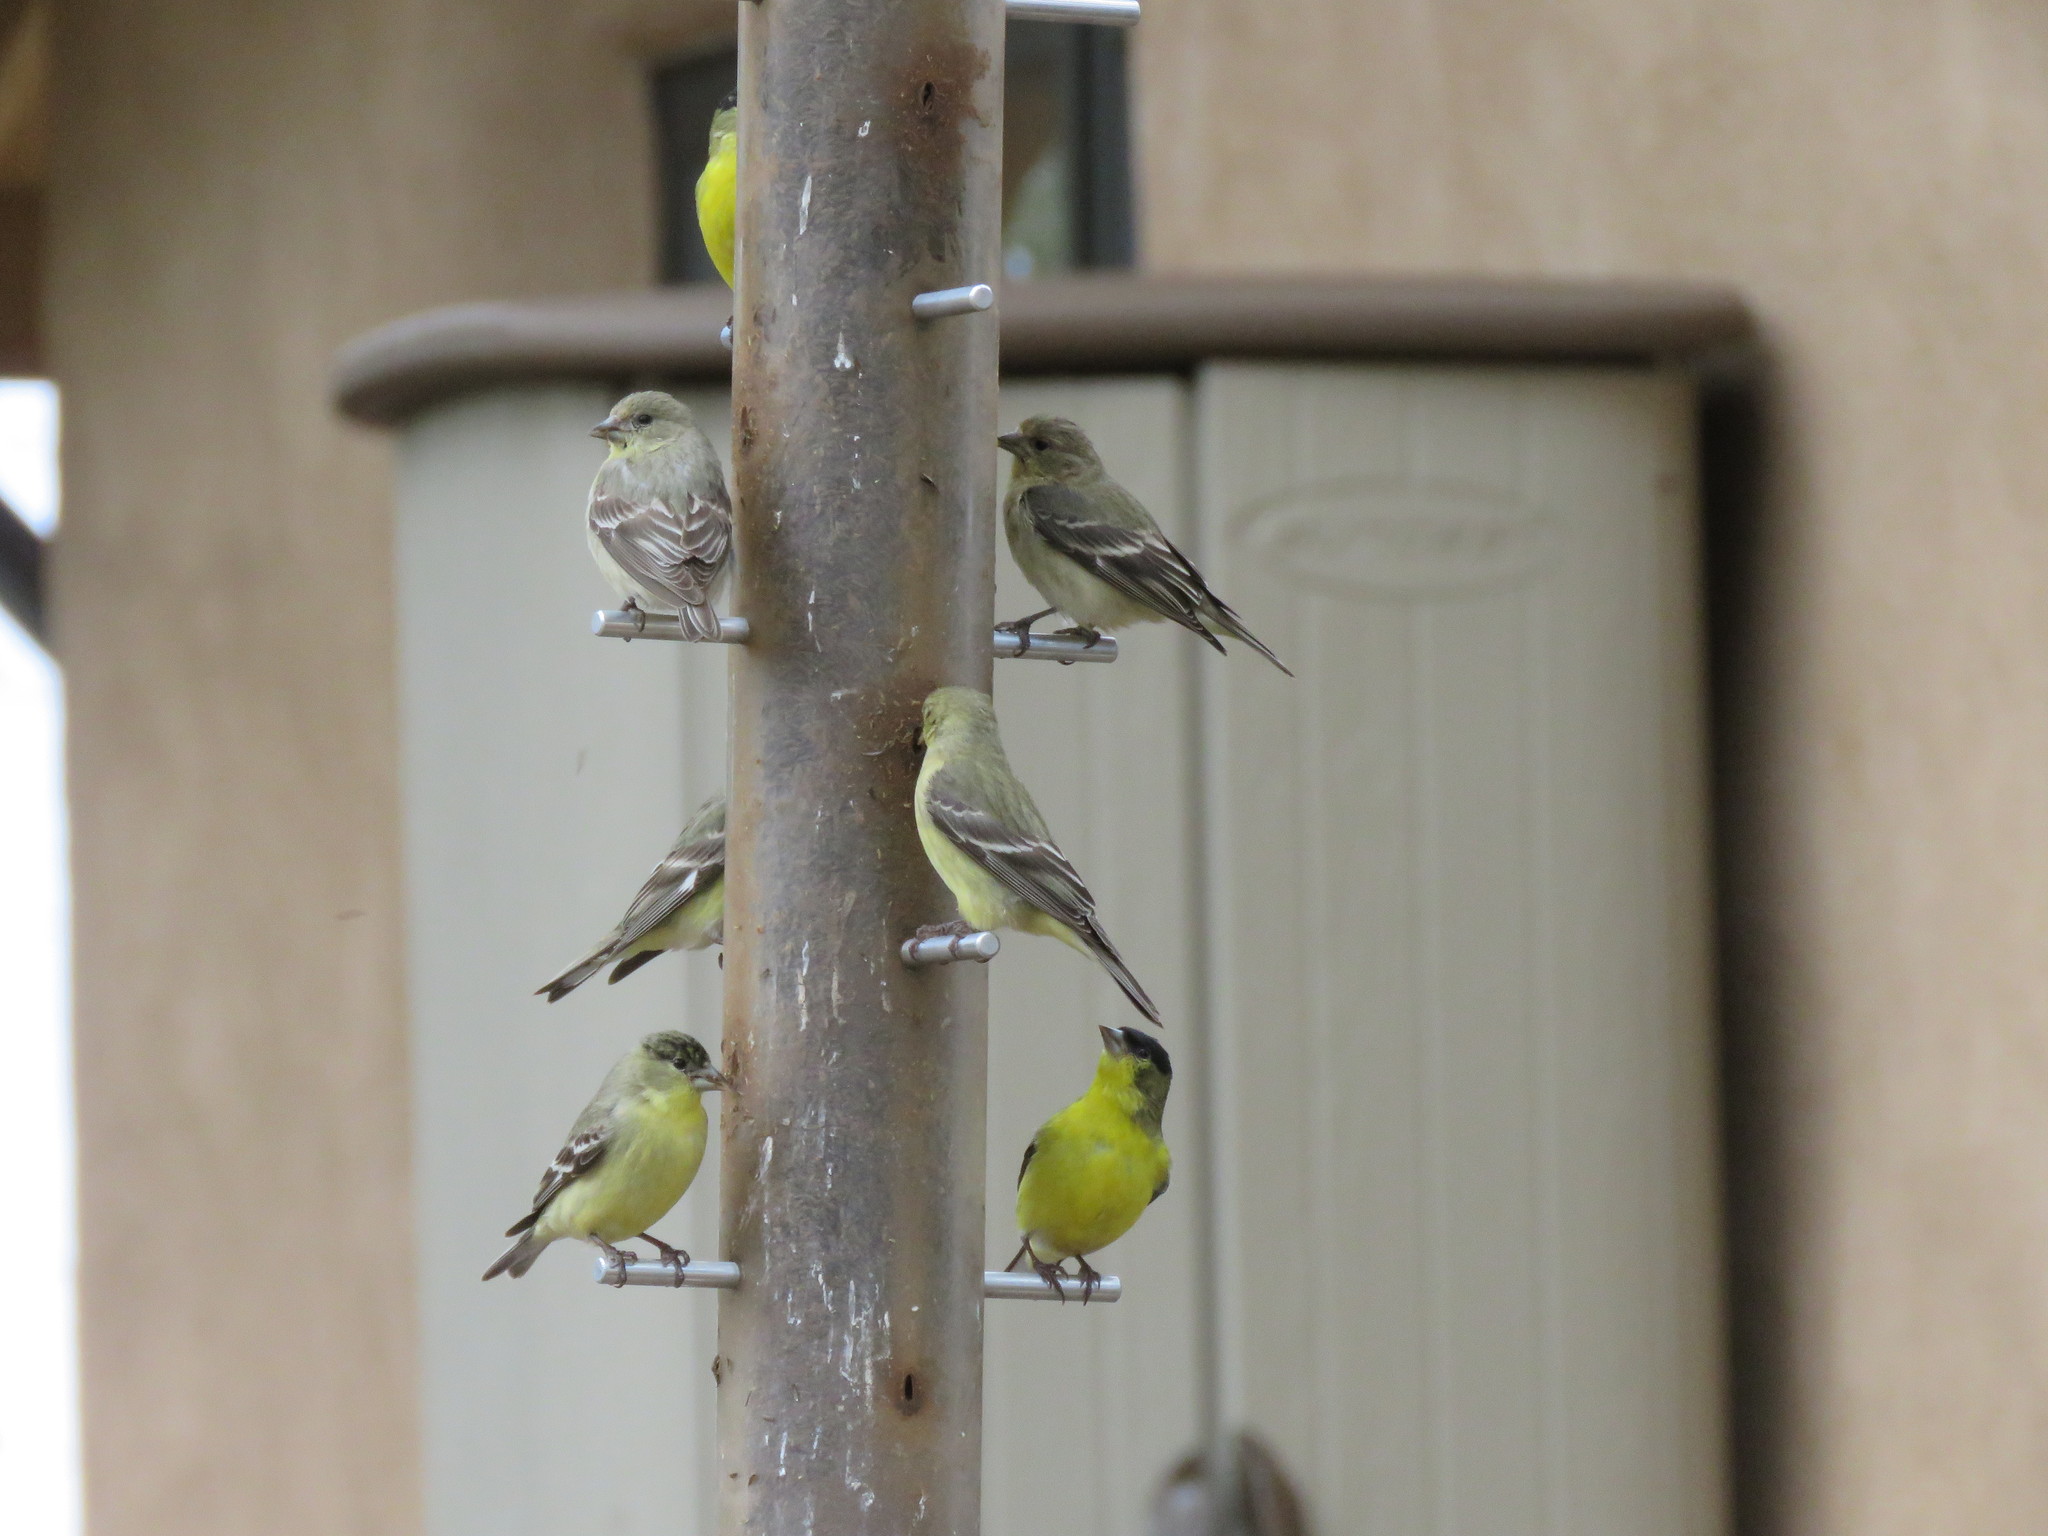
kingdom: Animalia
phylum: Chordata
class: Aves
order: Passeriformes
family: Fringillidae
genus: Spinus
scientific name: Spinus psaltria
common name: Lesser goldfinch
